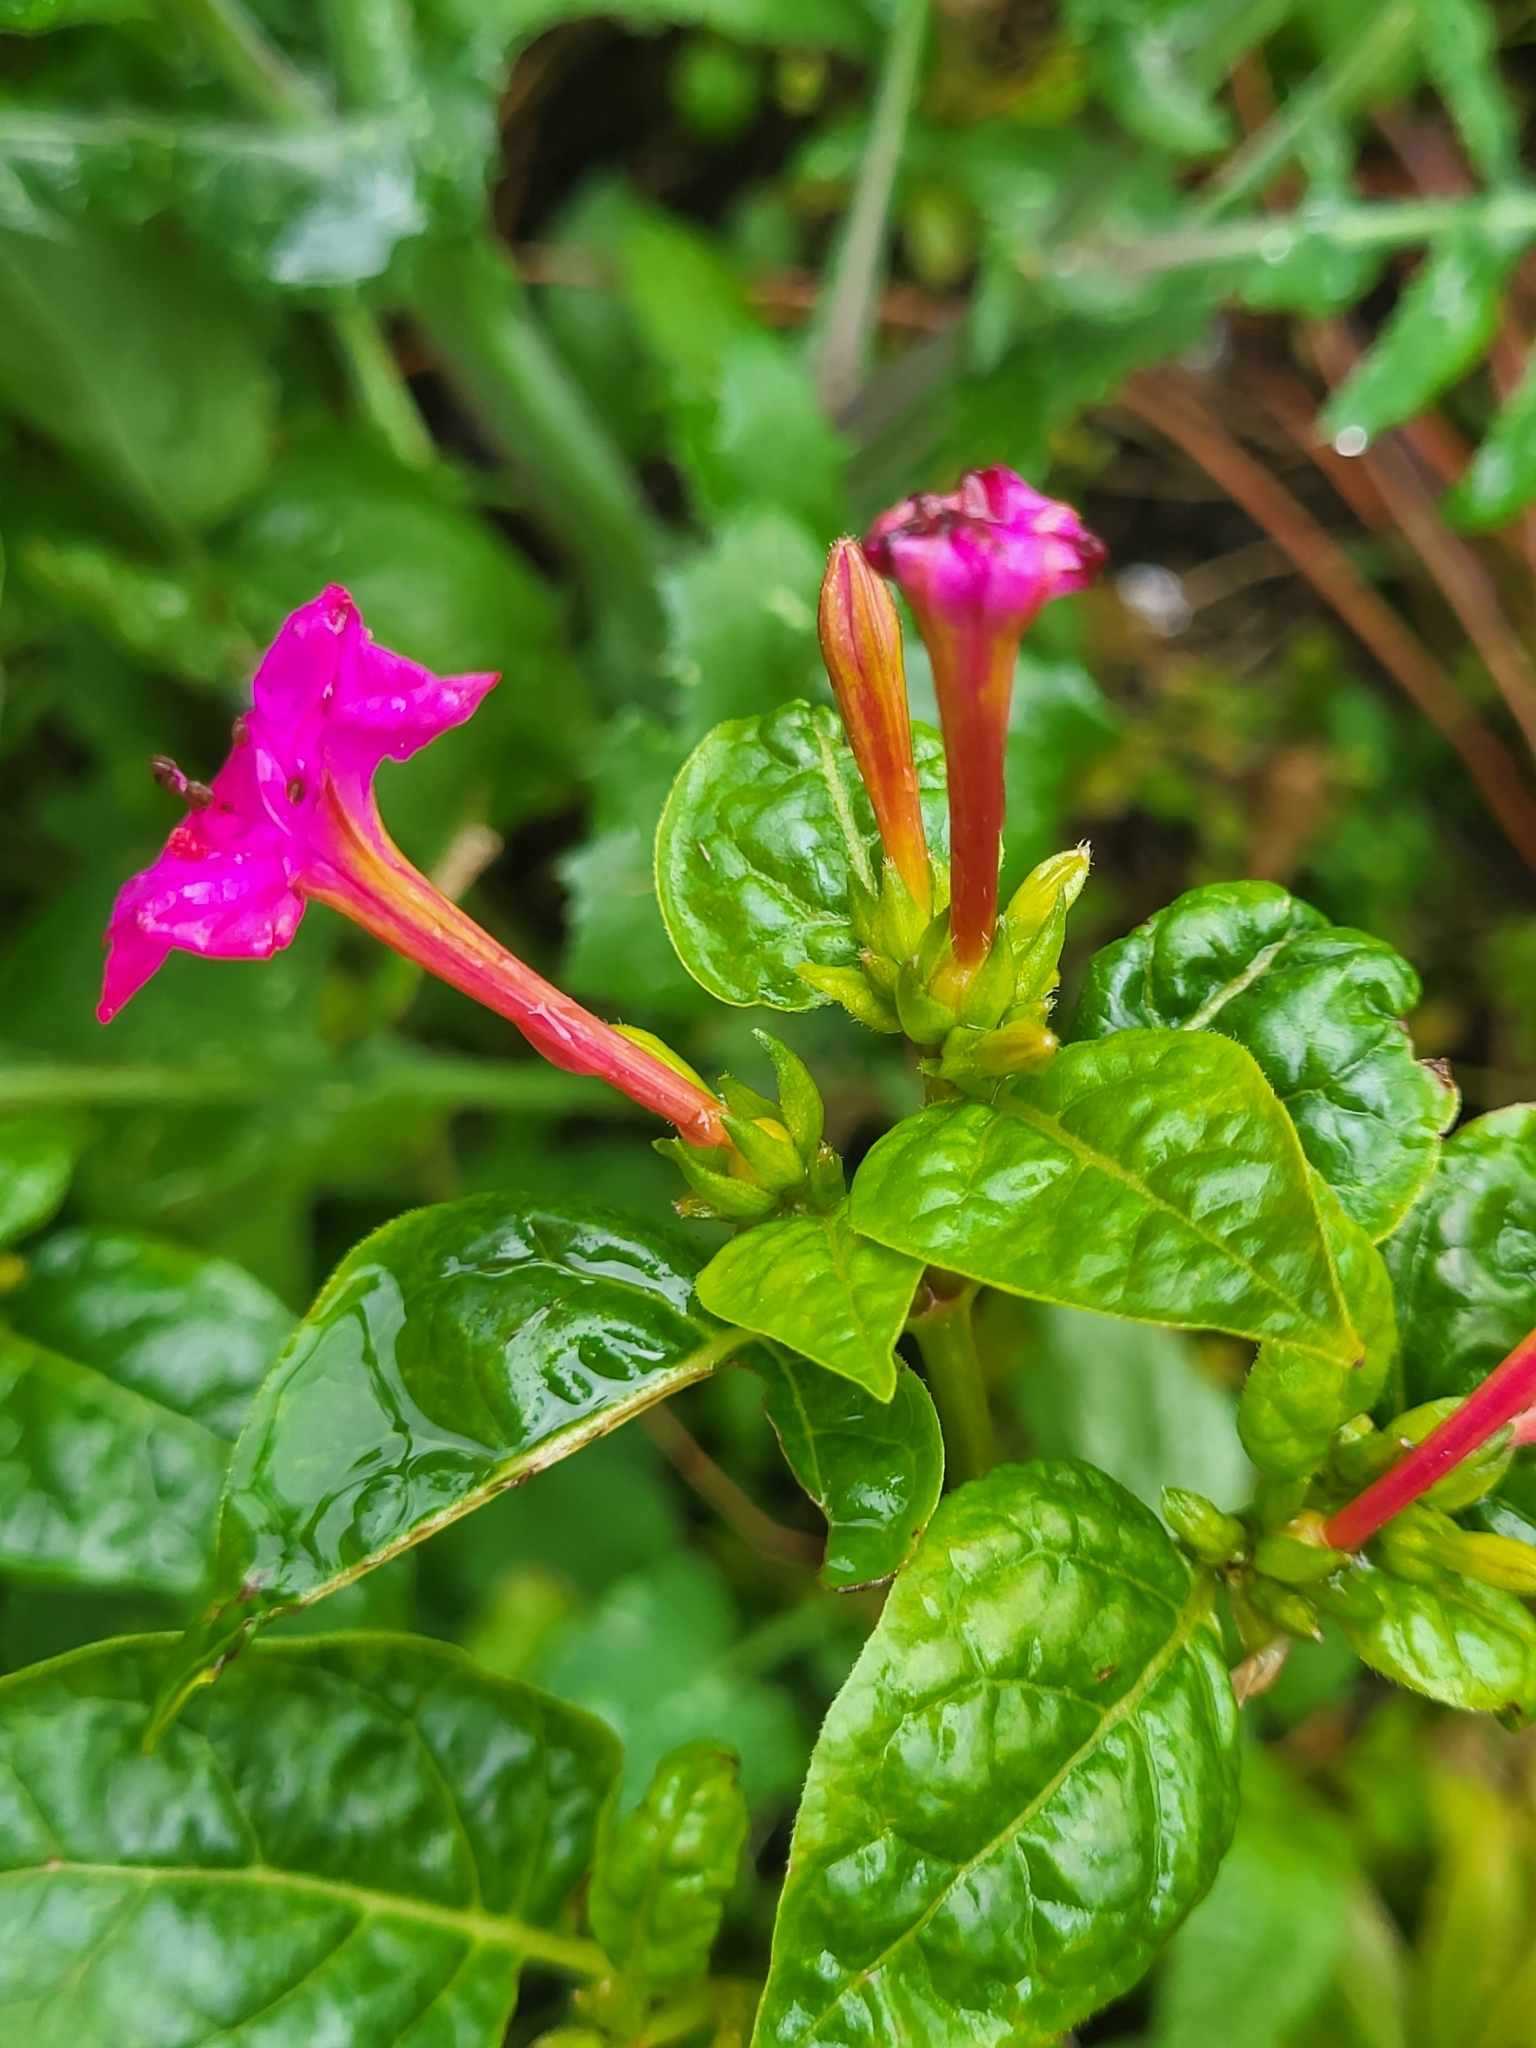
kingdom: Plantae
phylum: Tracheophyta
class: Magnoliopsida
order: Caryophyllales
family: Nyctaginaceae
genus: Mirabilis
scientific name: Mirabilis jalapa
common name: Marvel-of-peru
